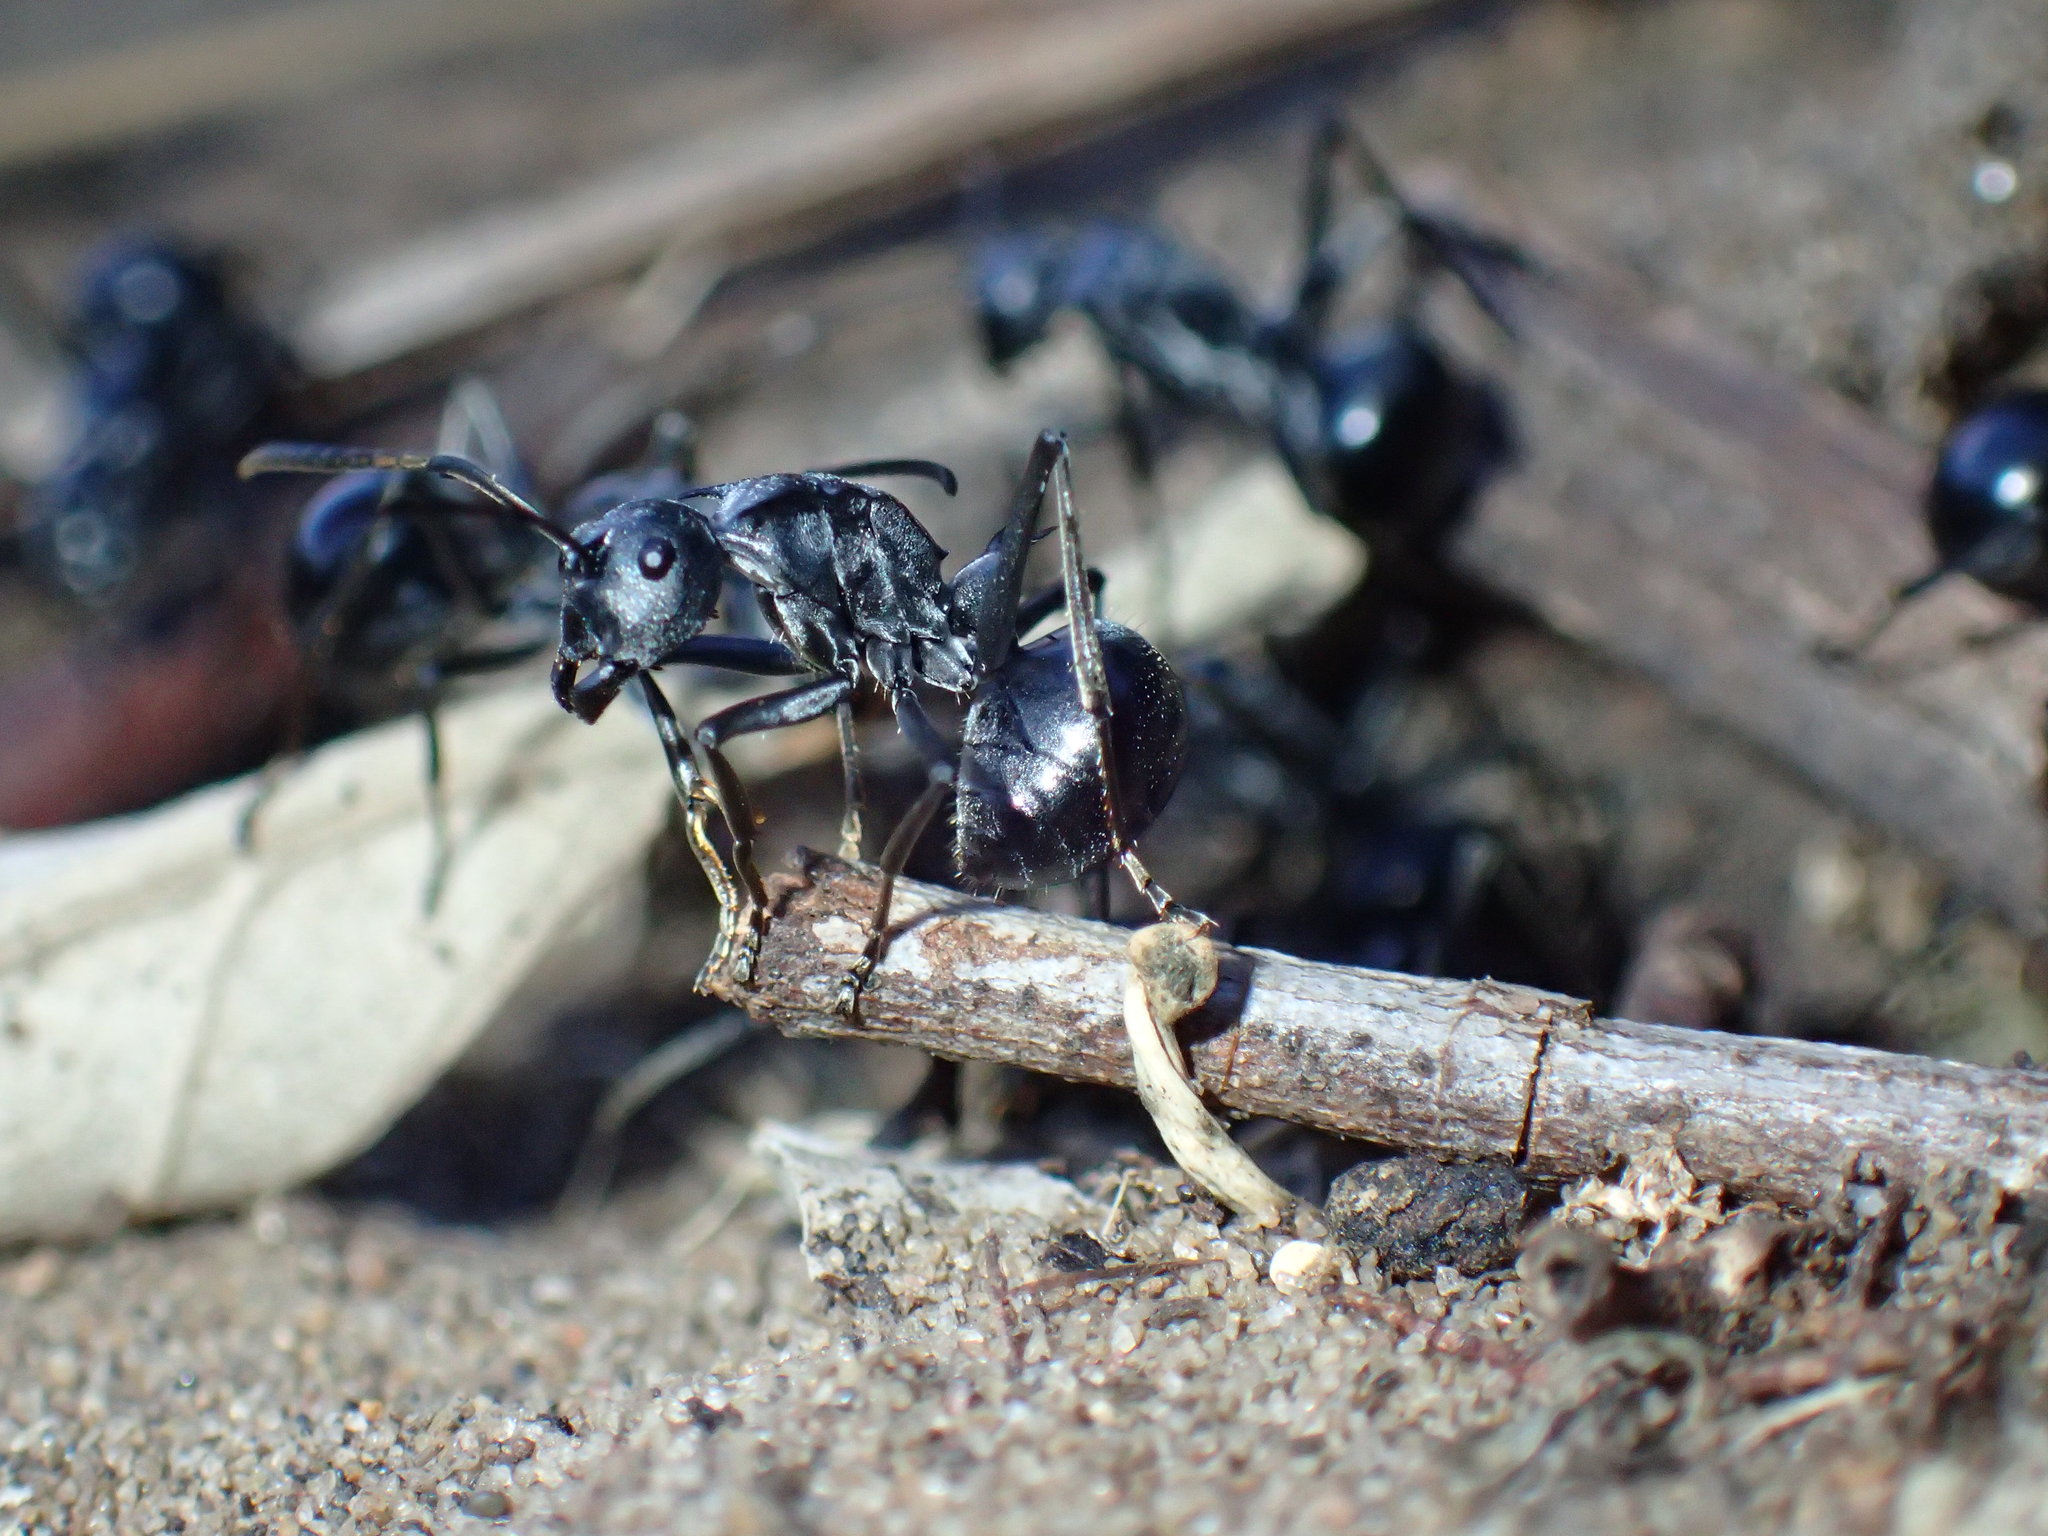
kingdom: Animalia
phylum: Arthropoda
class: Insecta
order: Hymenoptera
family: Formicidae
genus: Polyrhachis
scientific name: Polyrhachis gagates
